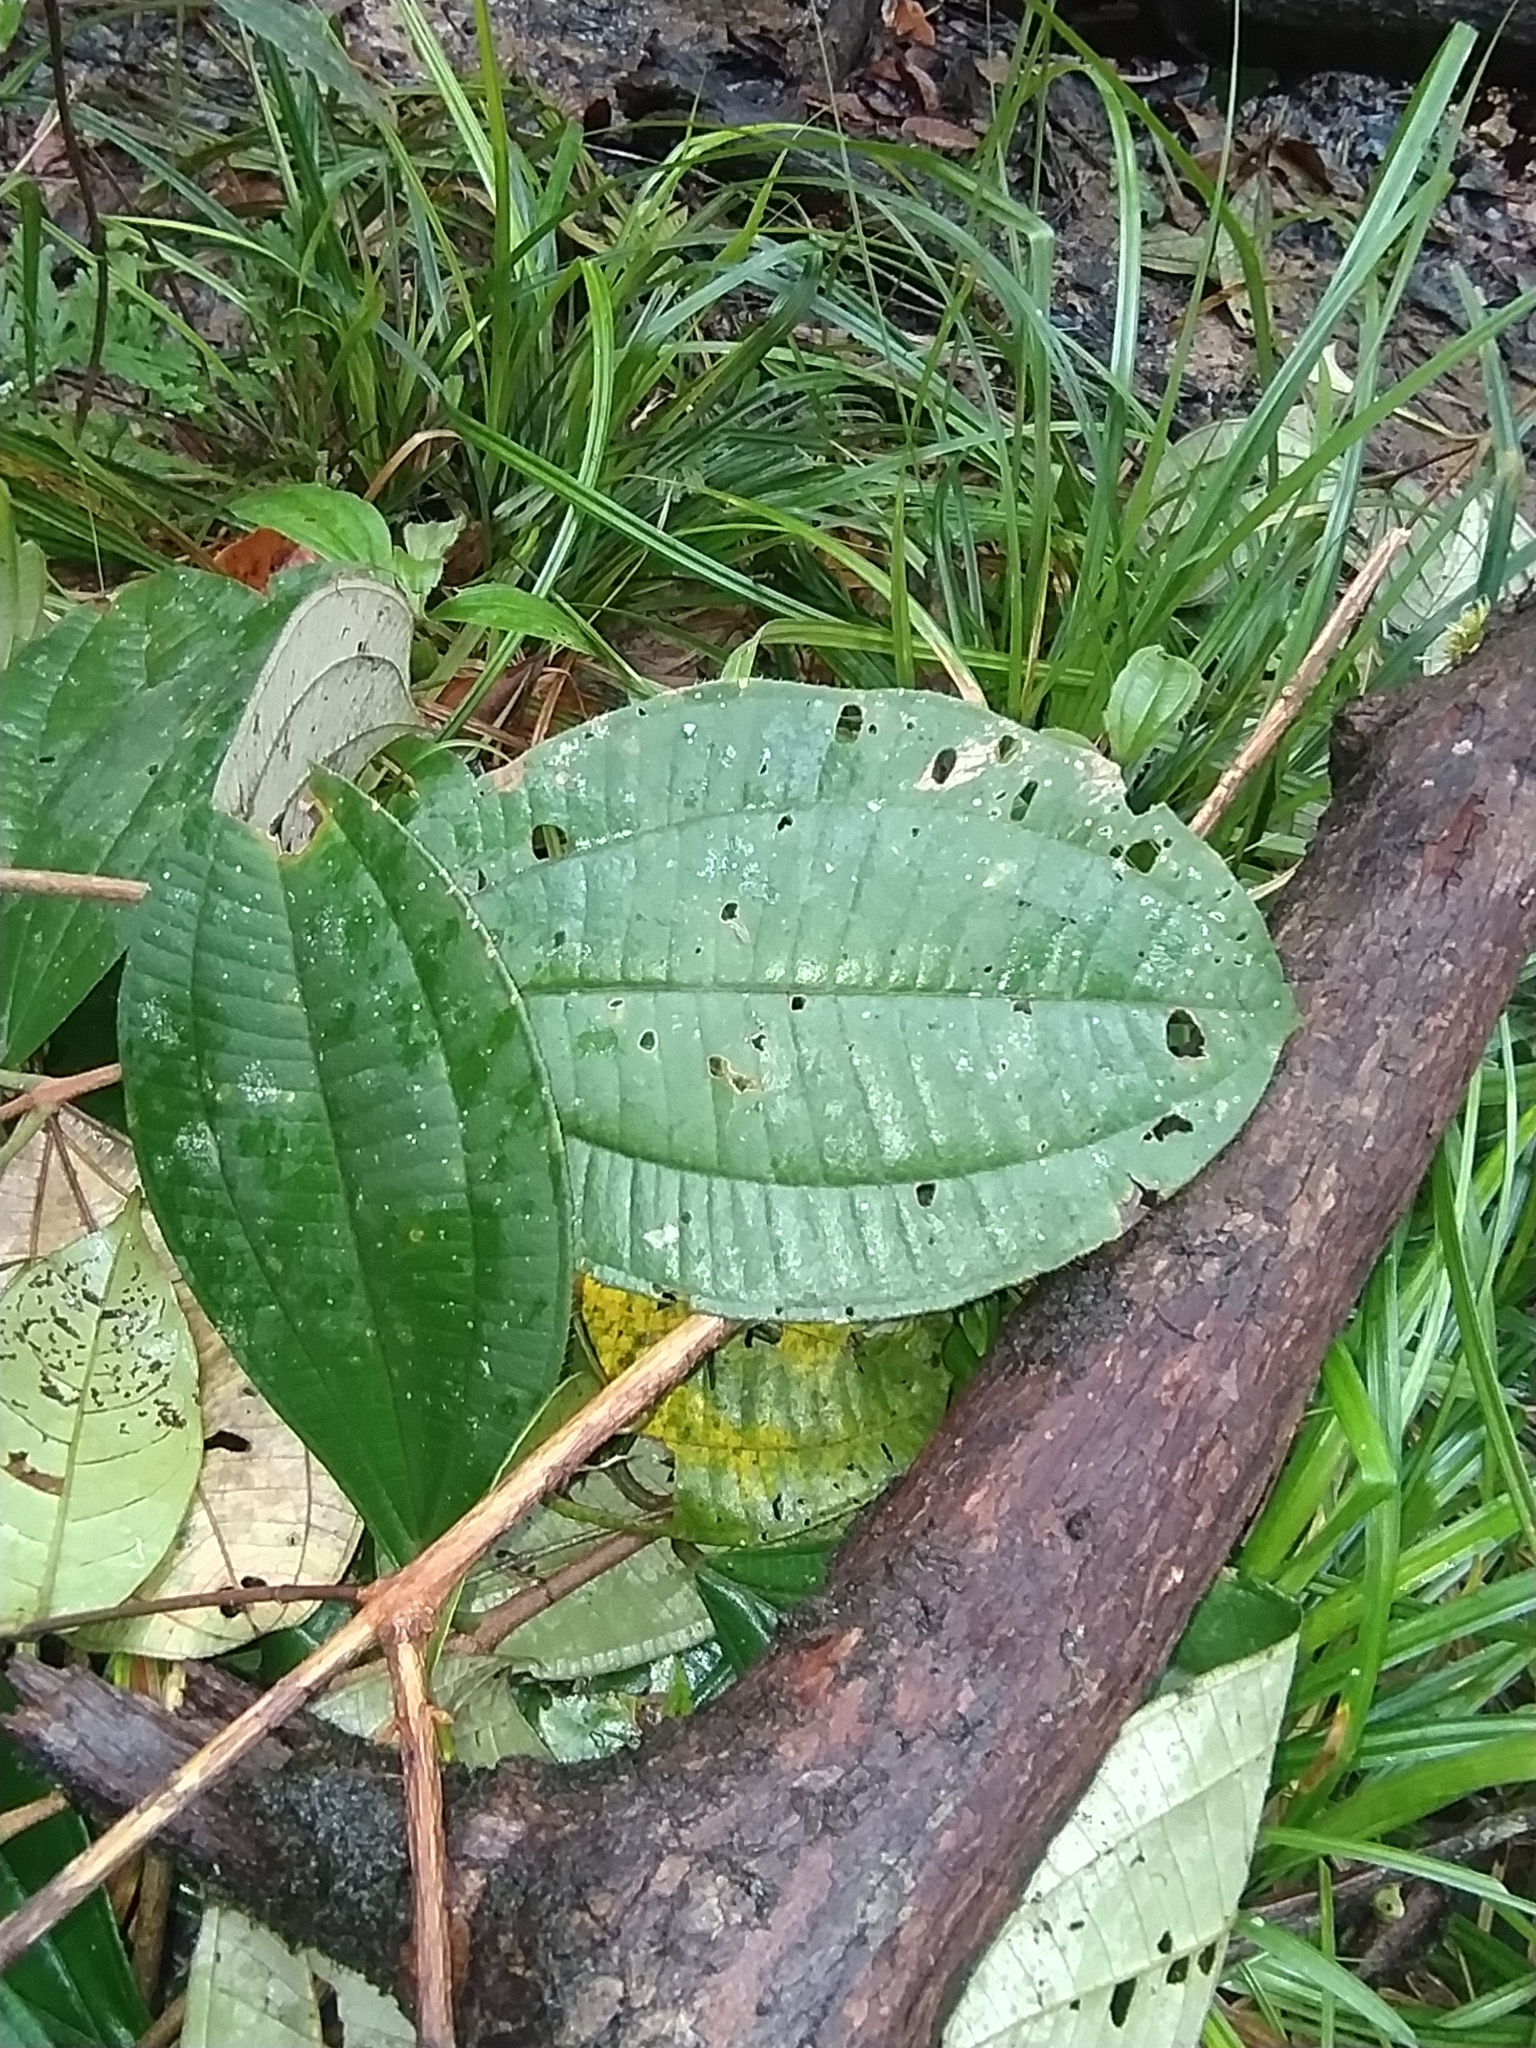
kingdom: Plantae
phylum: Tracheophyta
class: Magnoliopsida
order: Myrtales
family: Melastomataceae
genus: Henriettea
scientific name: Henriettea succosa
